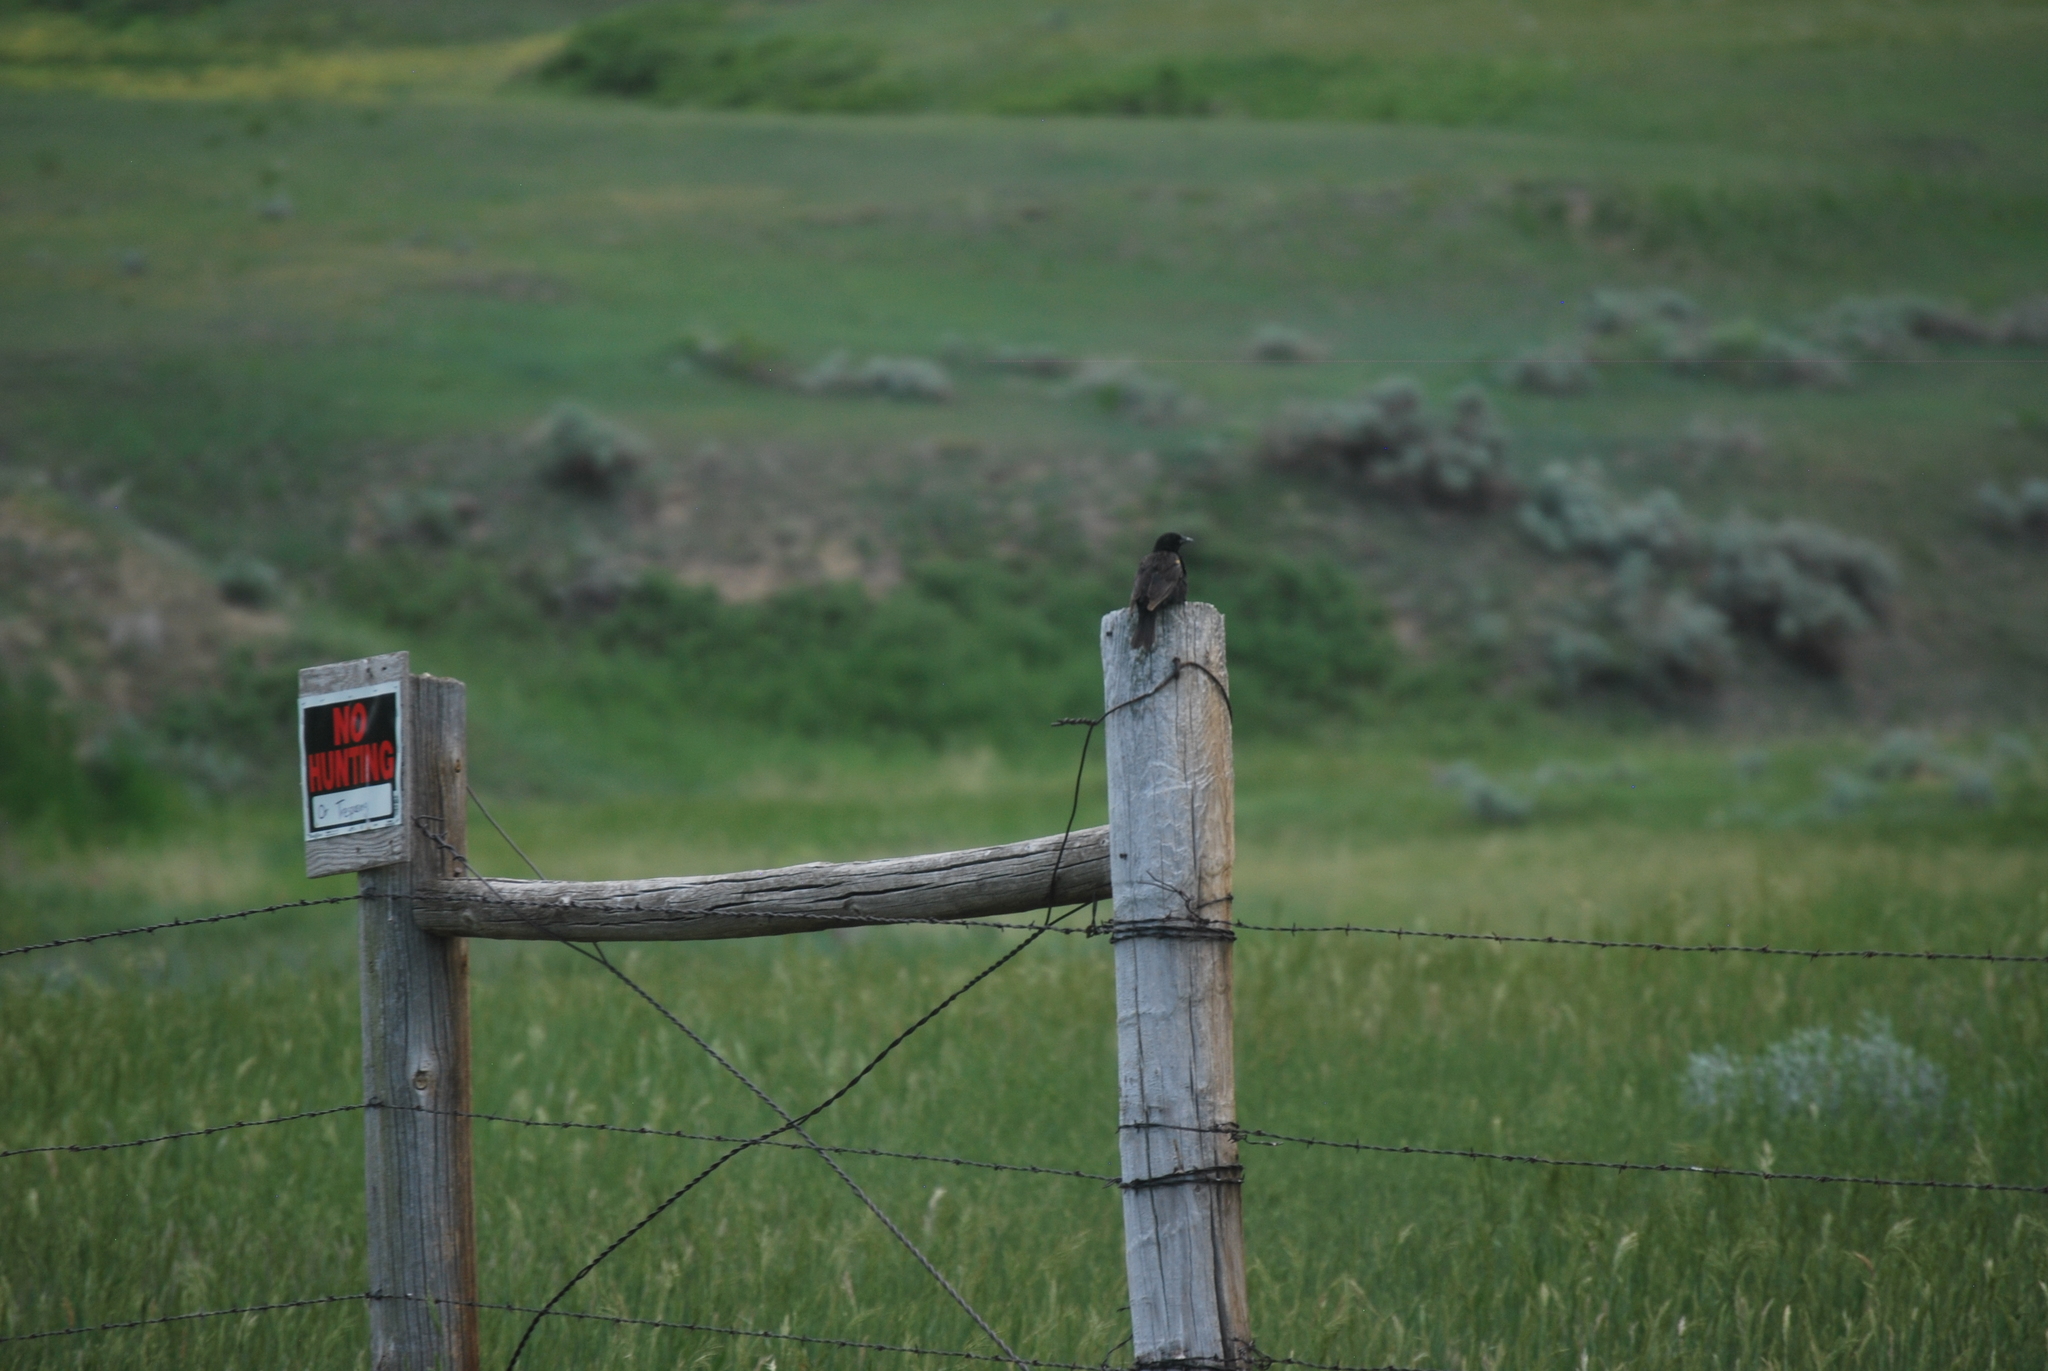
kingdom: Animalia
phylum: Chordata
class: Aves
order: Passeriformes
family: Icteridae
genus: Agelaius
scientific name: Agelaius phoeniceus
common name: Red-winged blackbird
